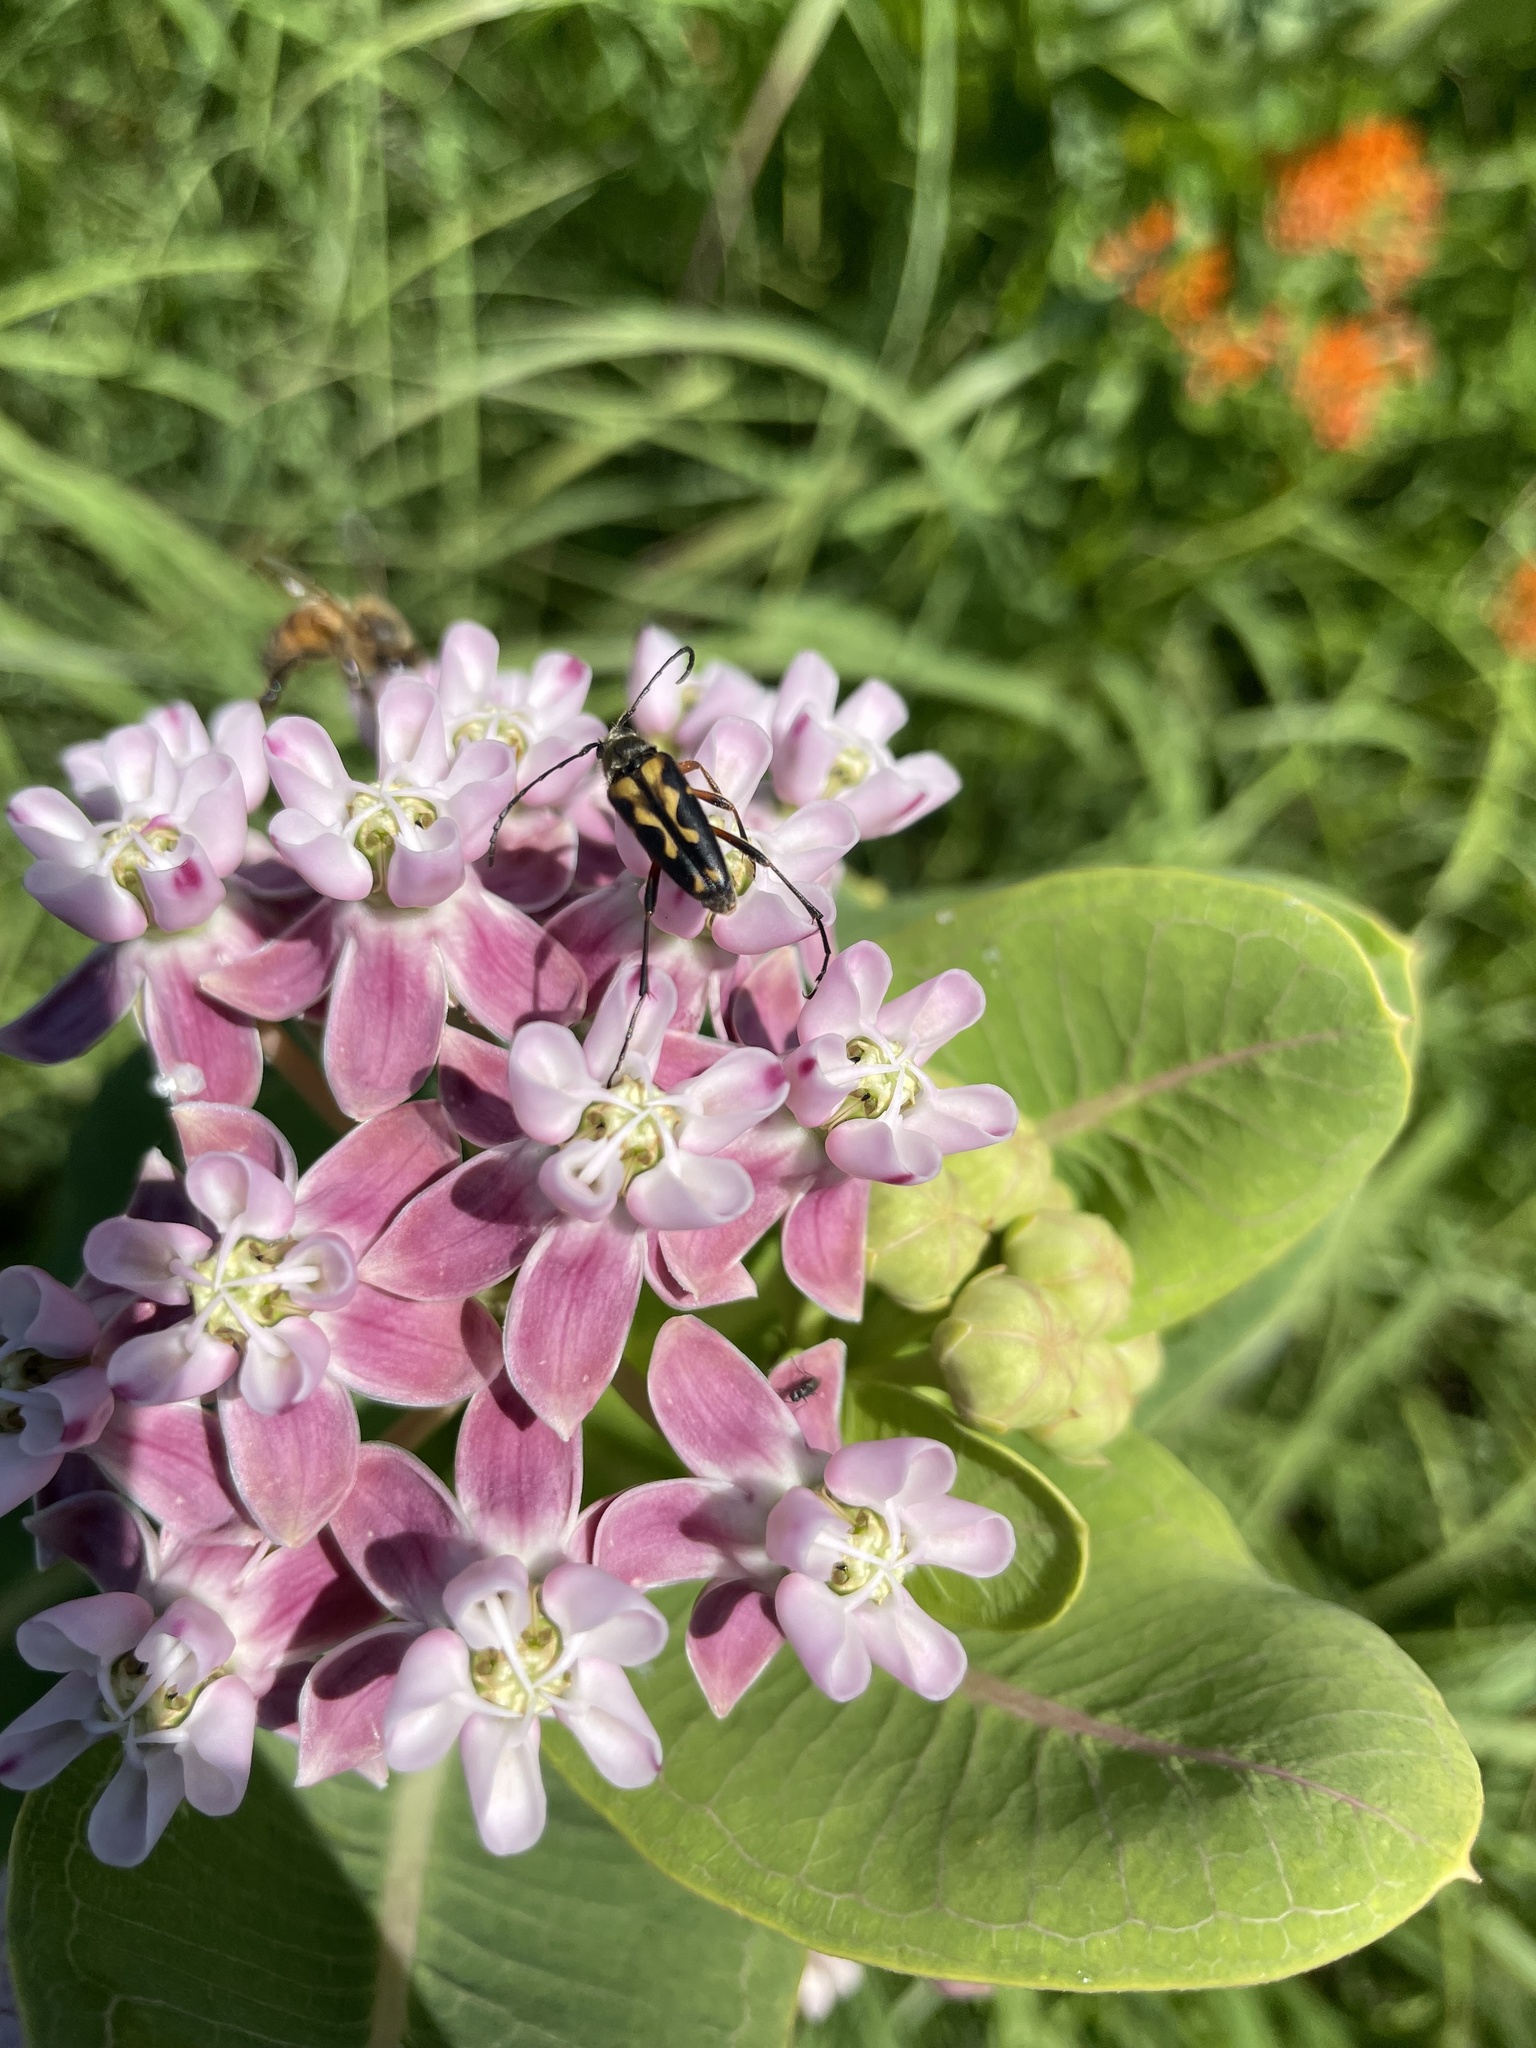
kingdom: Animalia
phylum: Arthropoda
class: Insecta
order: Coleoptera
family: Cerambycidae
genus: Typocerus
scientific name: Typocerus octonotatus
